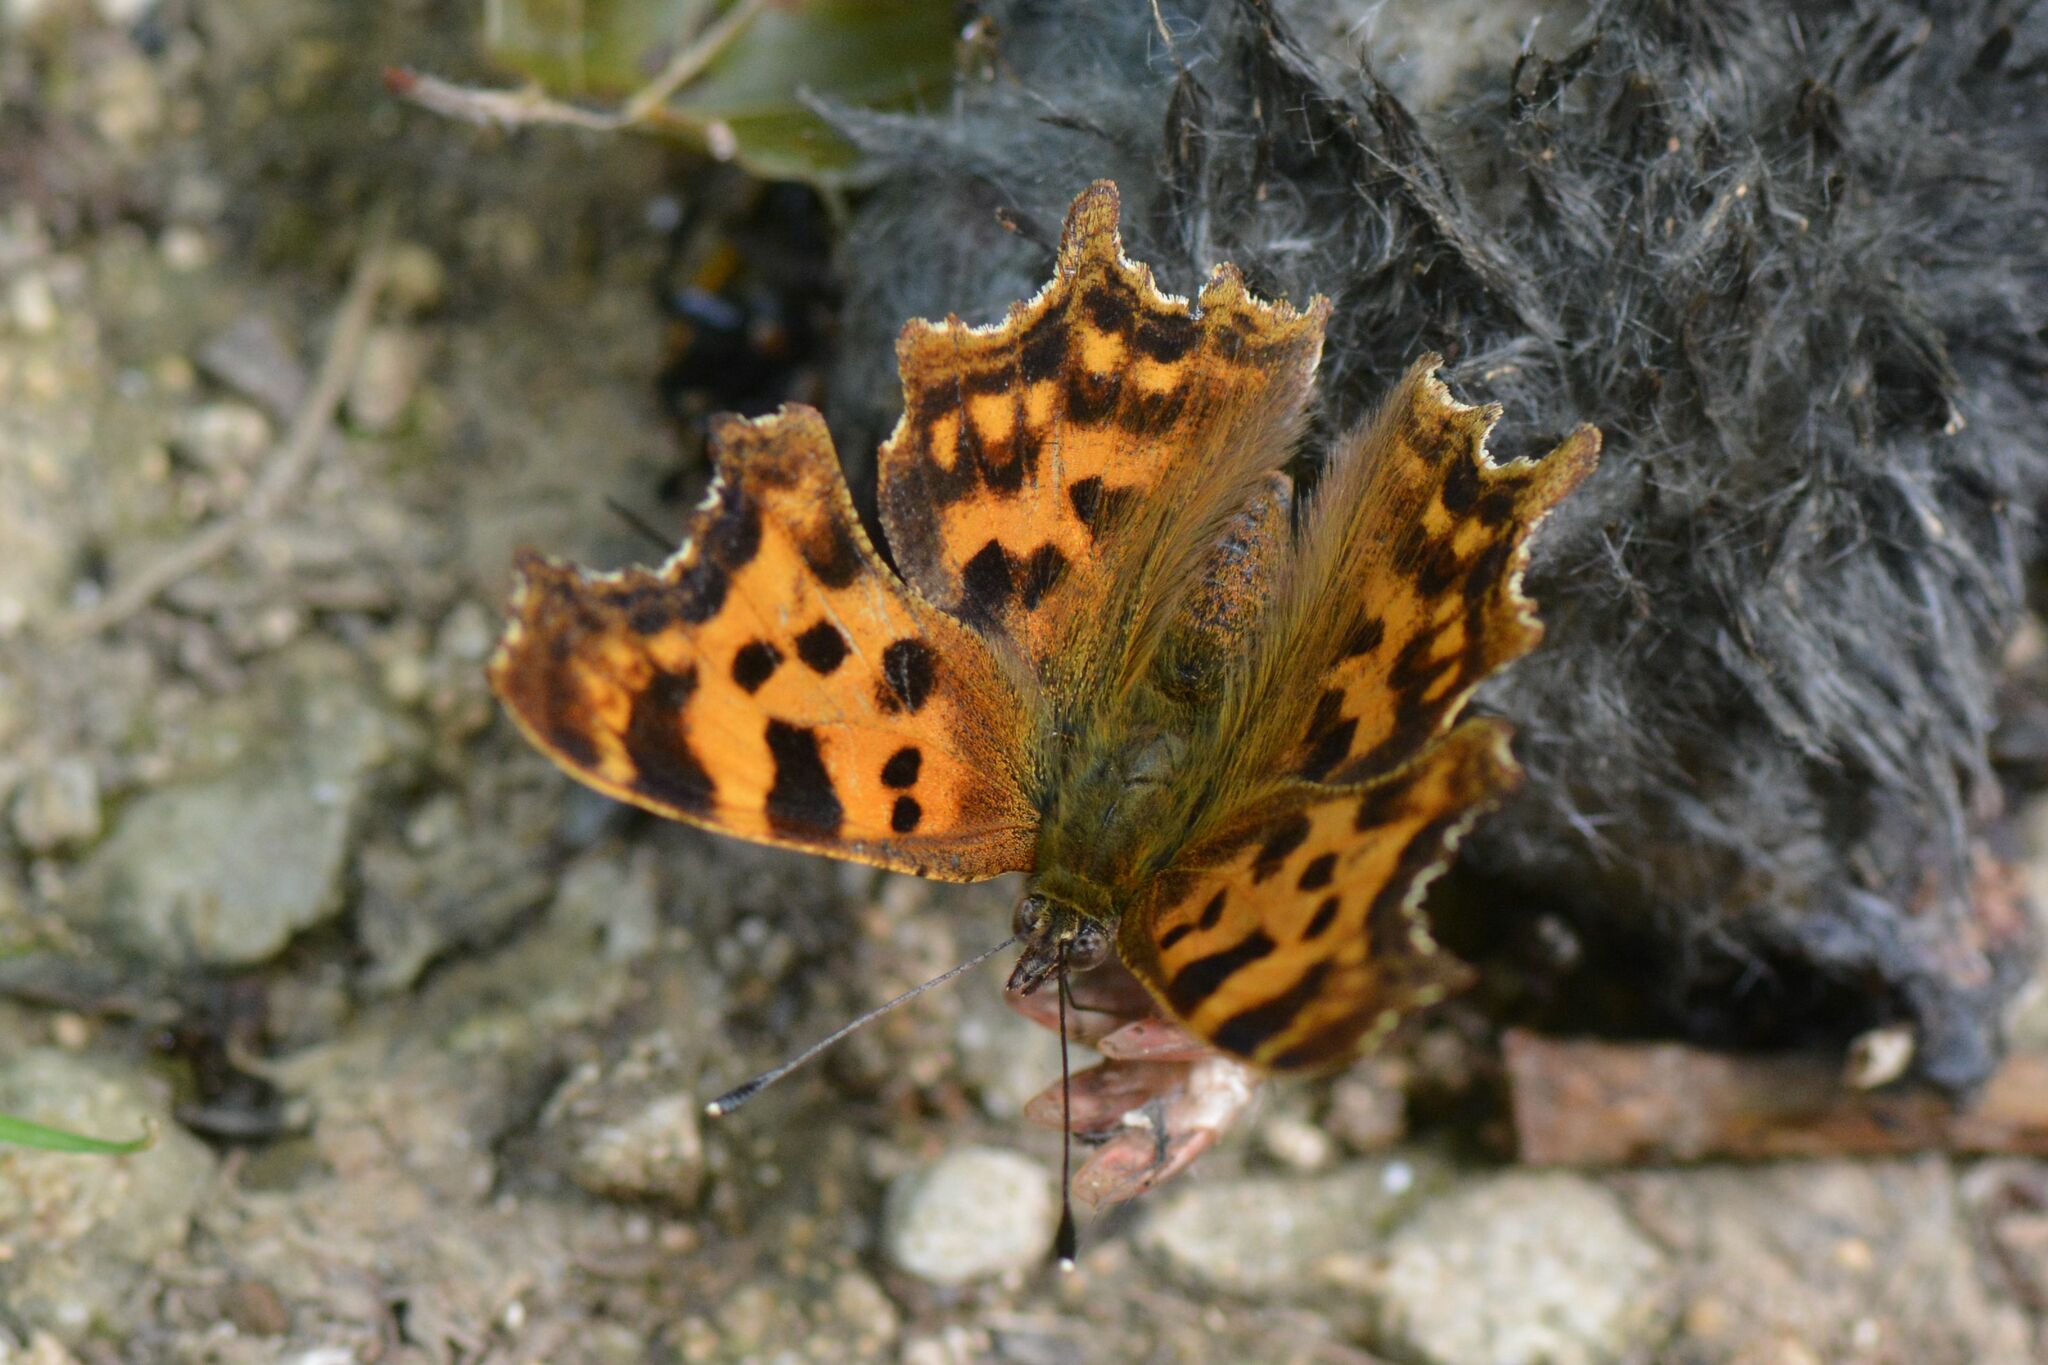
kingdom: Animalia
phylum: Arthropoda
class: Insecta
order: Lepidoptera
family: Nymphalidae
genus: Polygonia
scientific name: Polygonia c-album
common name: Comma
